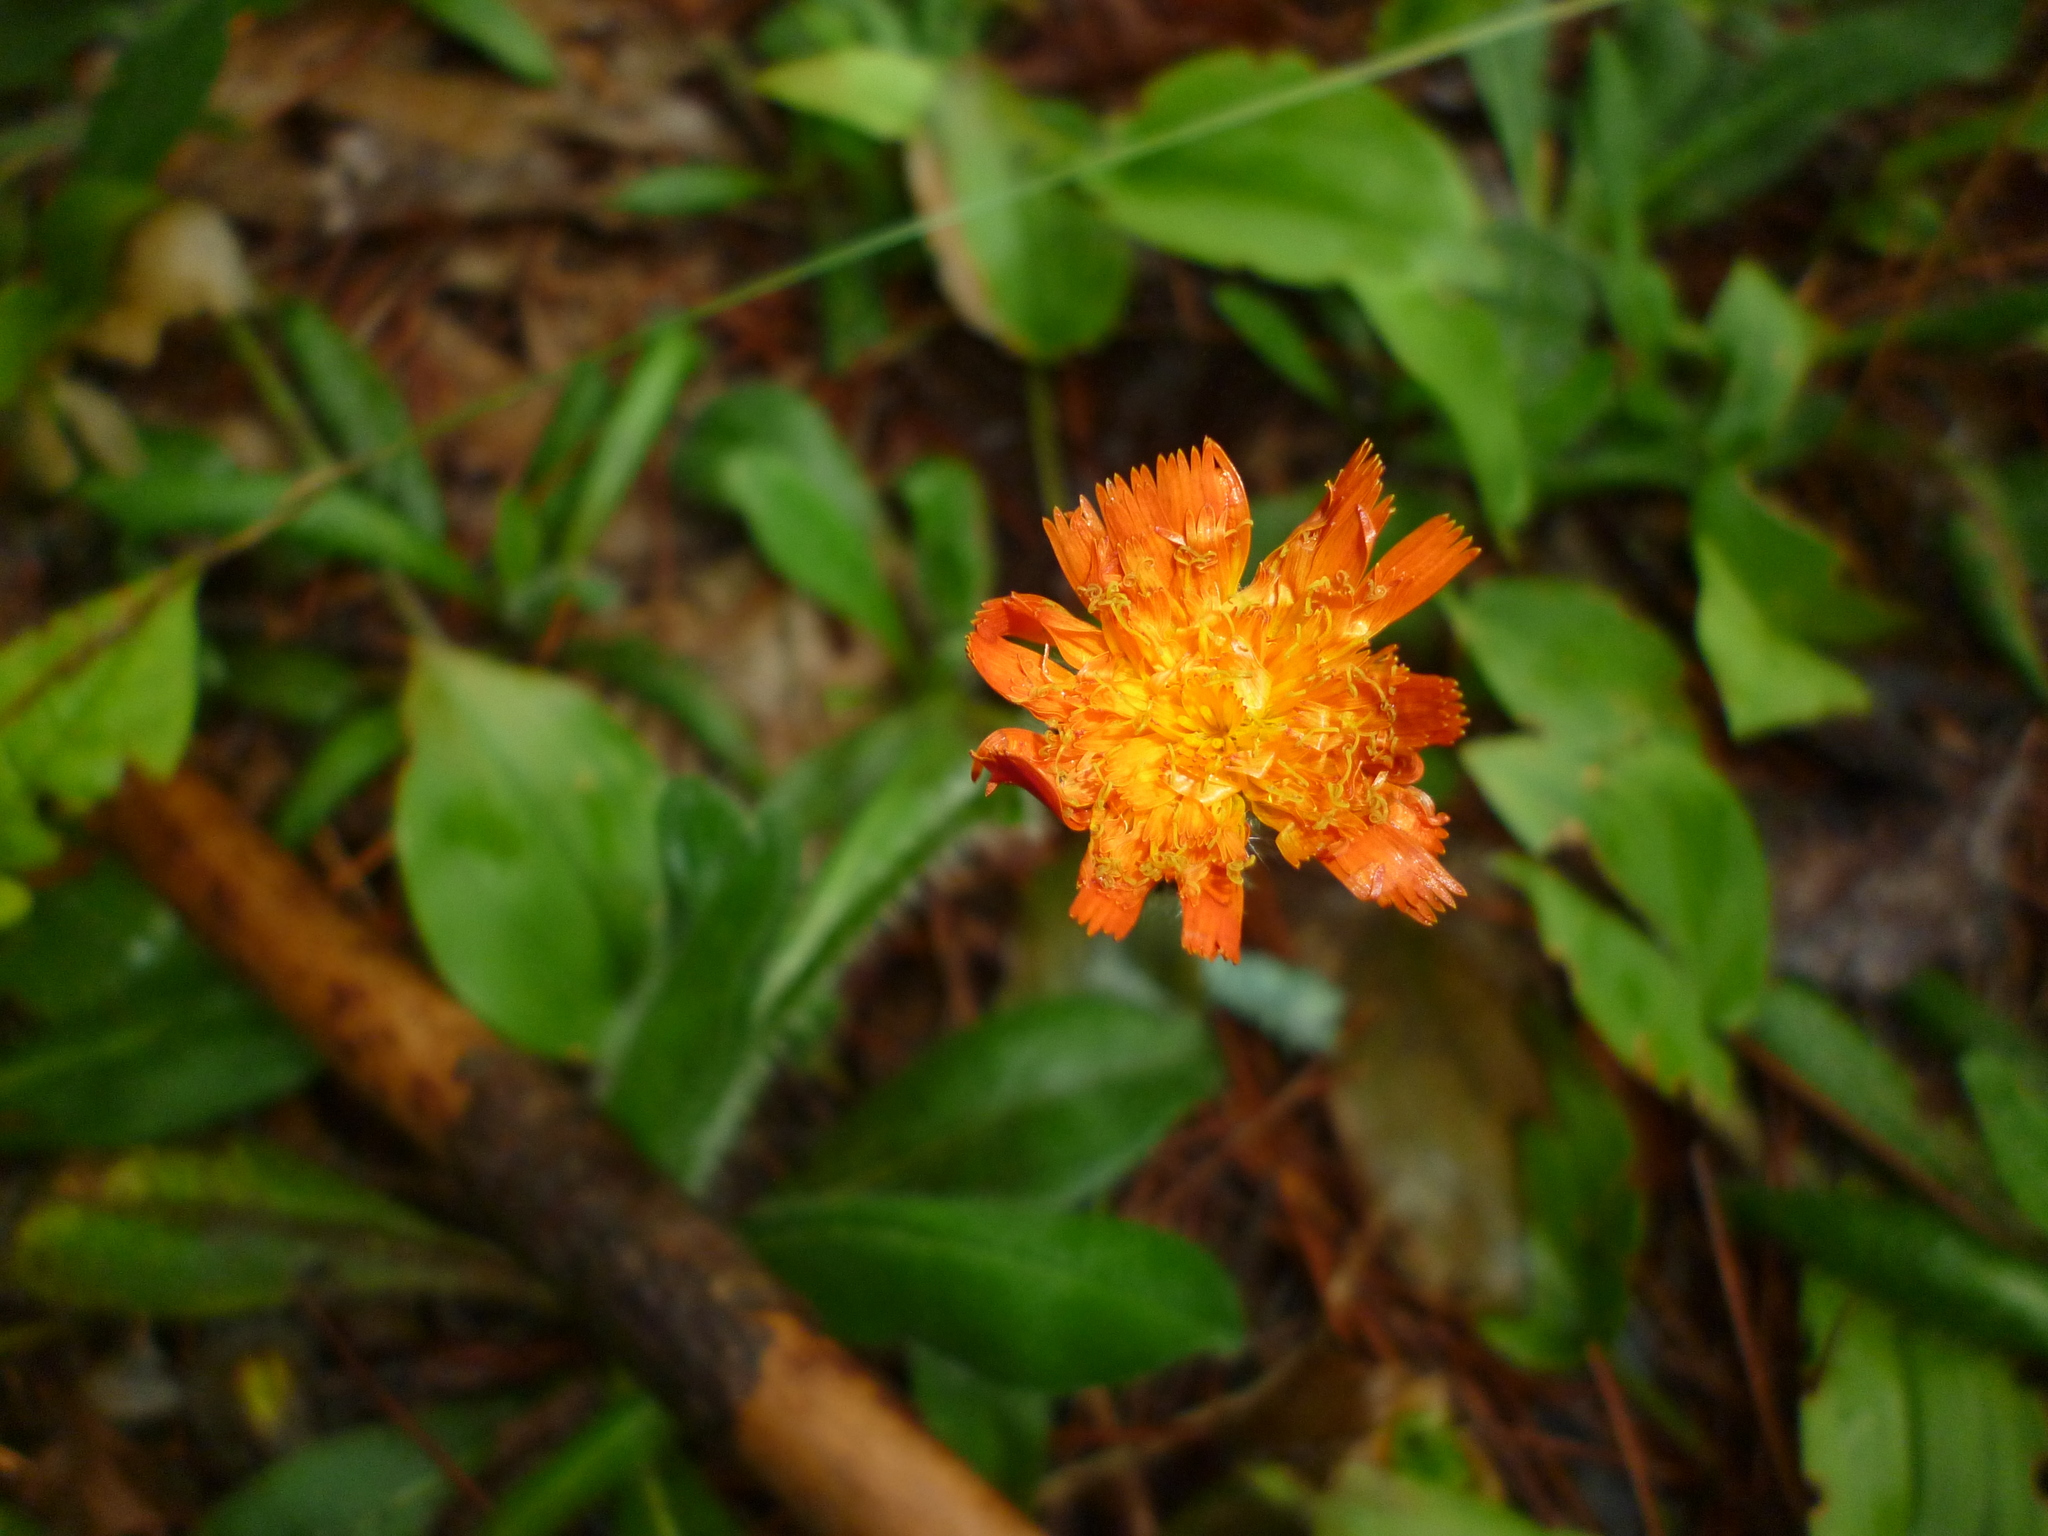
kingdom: Plantae
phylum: Tracheophyta
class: Magnoliopsida
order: Asterales
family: Asteraceae
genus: Pilosella
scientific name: Pilosella aurantiaca
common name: Fox-and-cubs
